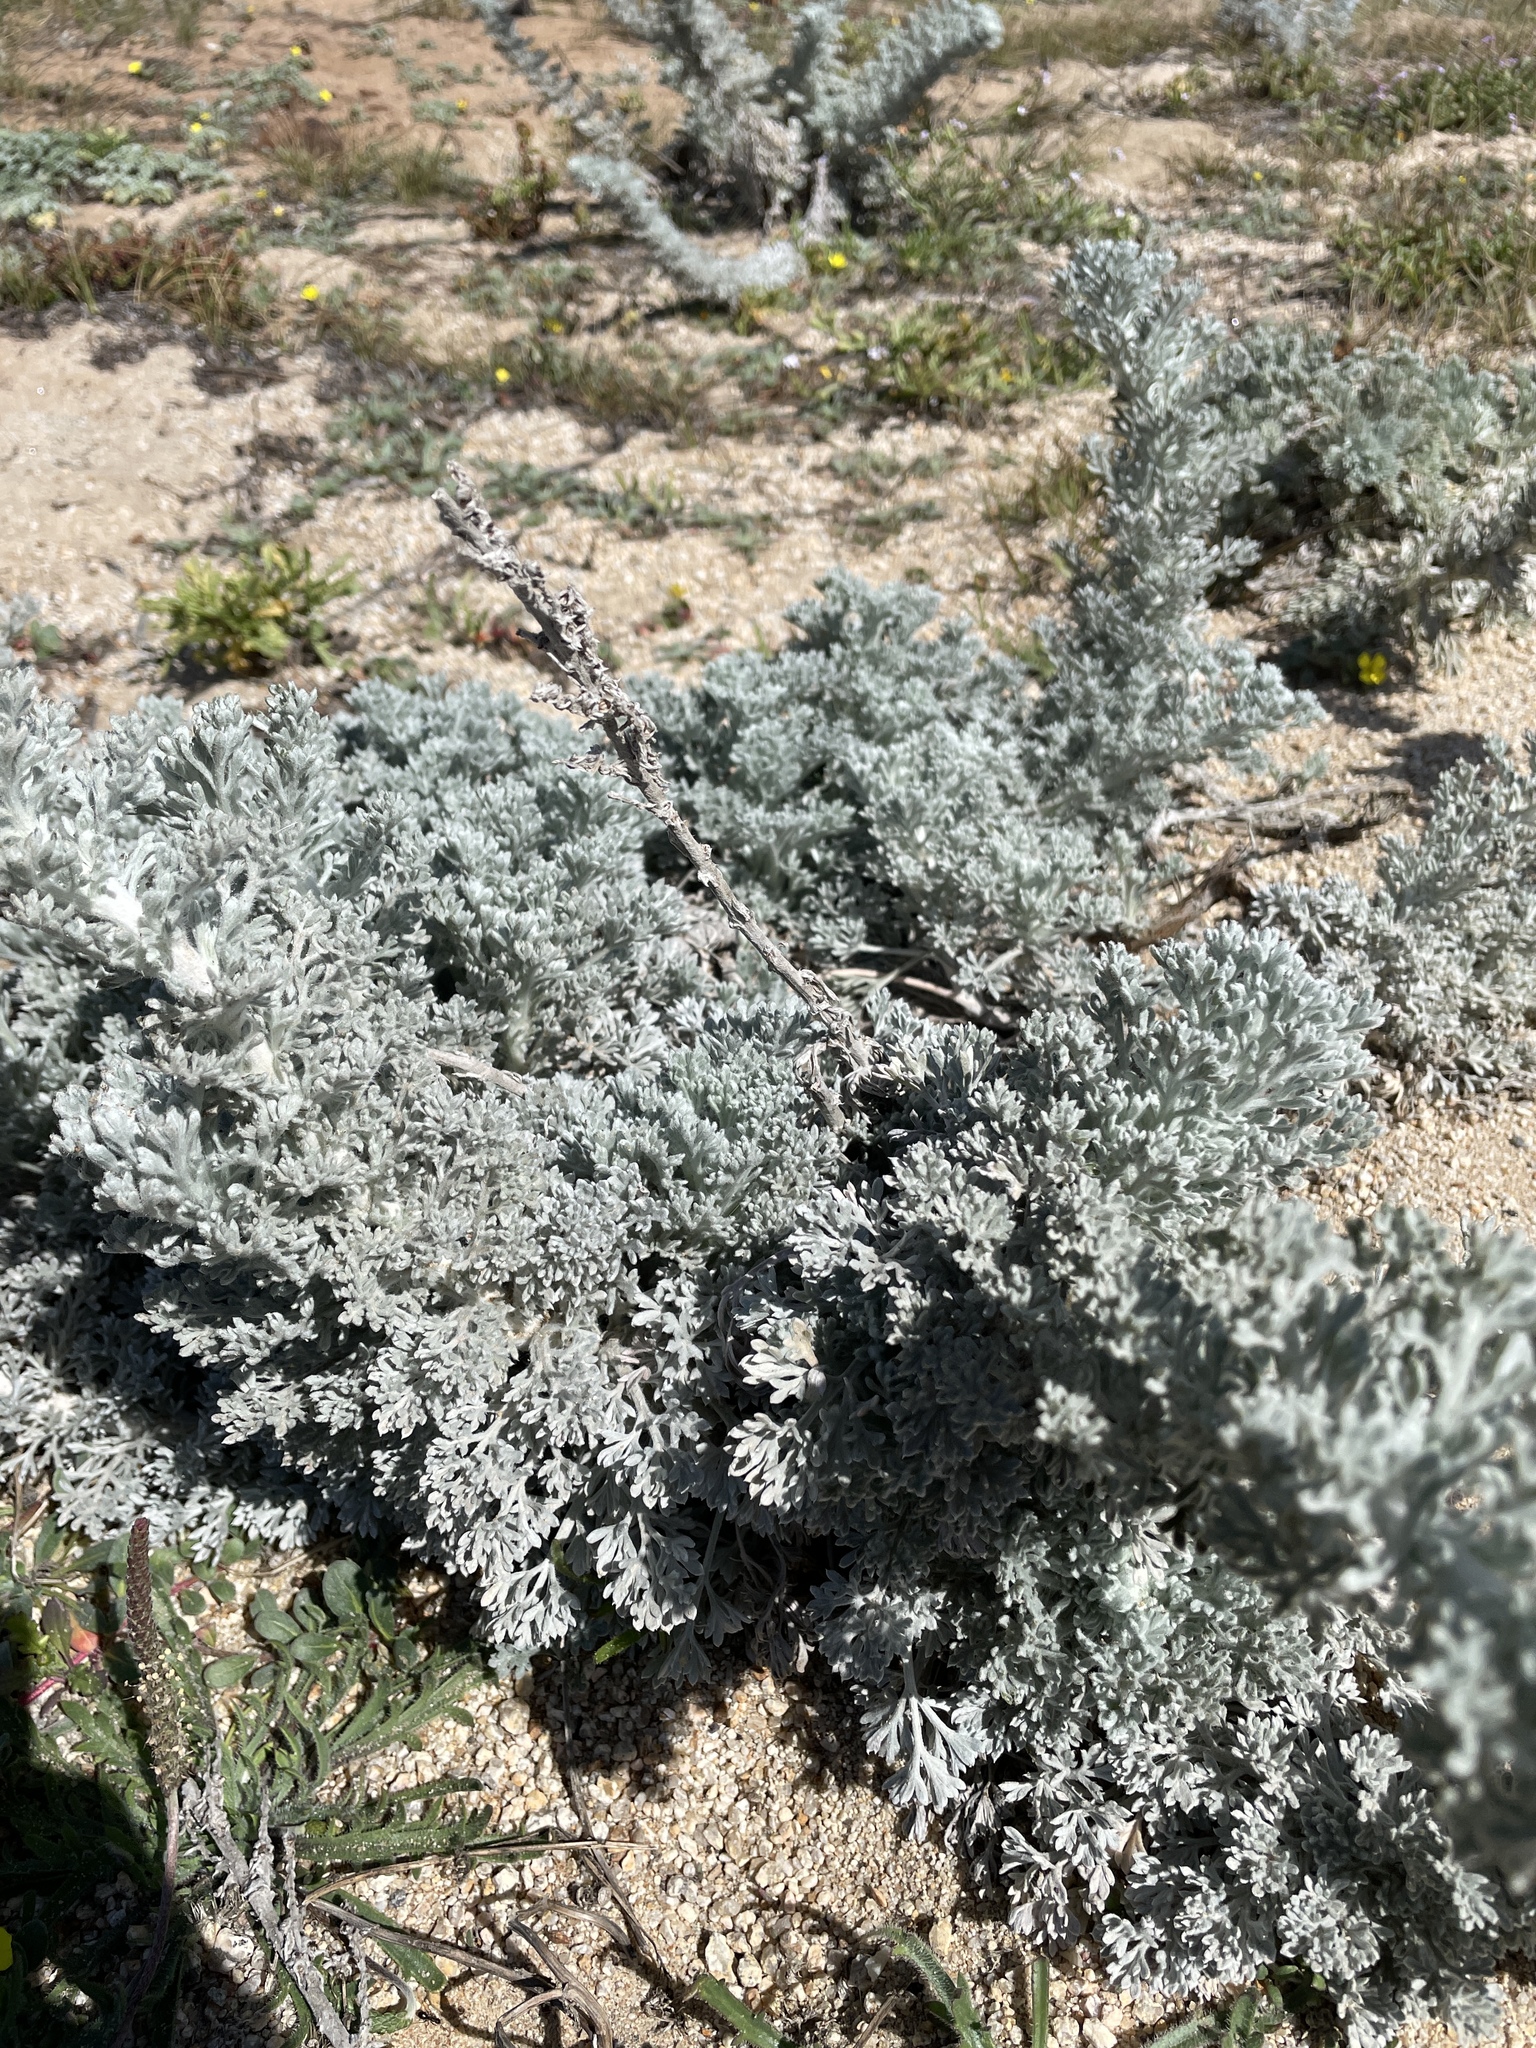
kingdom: Plantae
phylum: Tracheophyta
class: Magnoliopsida
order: Asterales
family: Asteraceae
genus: Artemisia
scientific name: Artemisia pycnocephala
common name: Coastal sagewort
